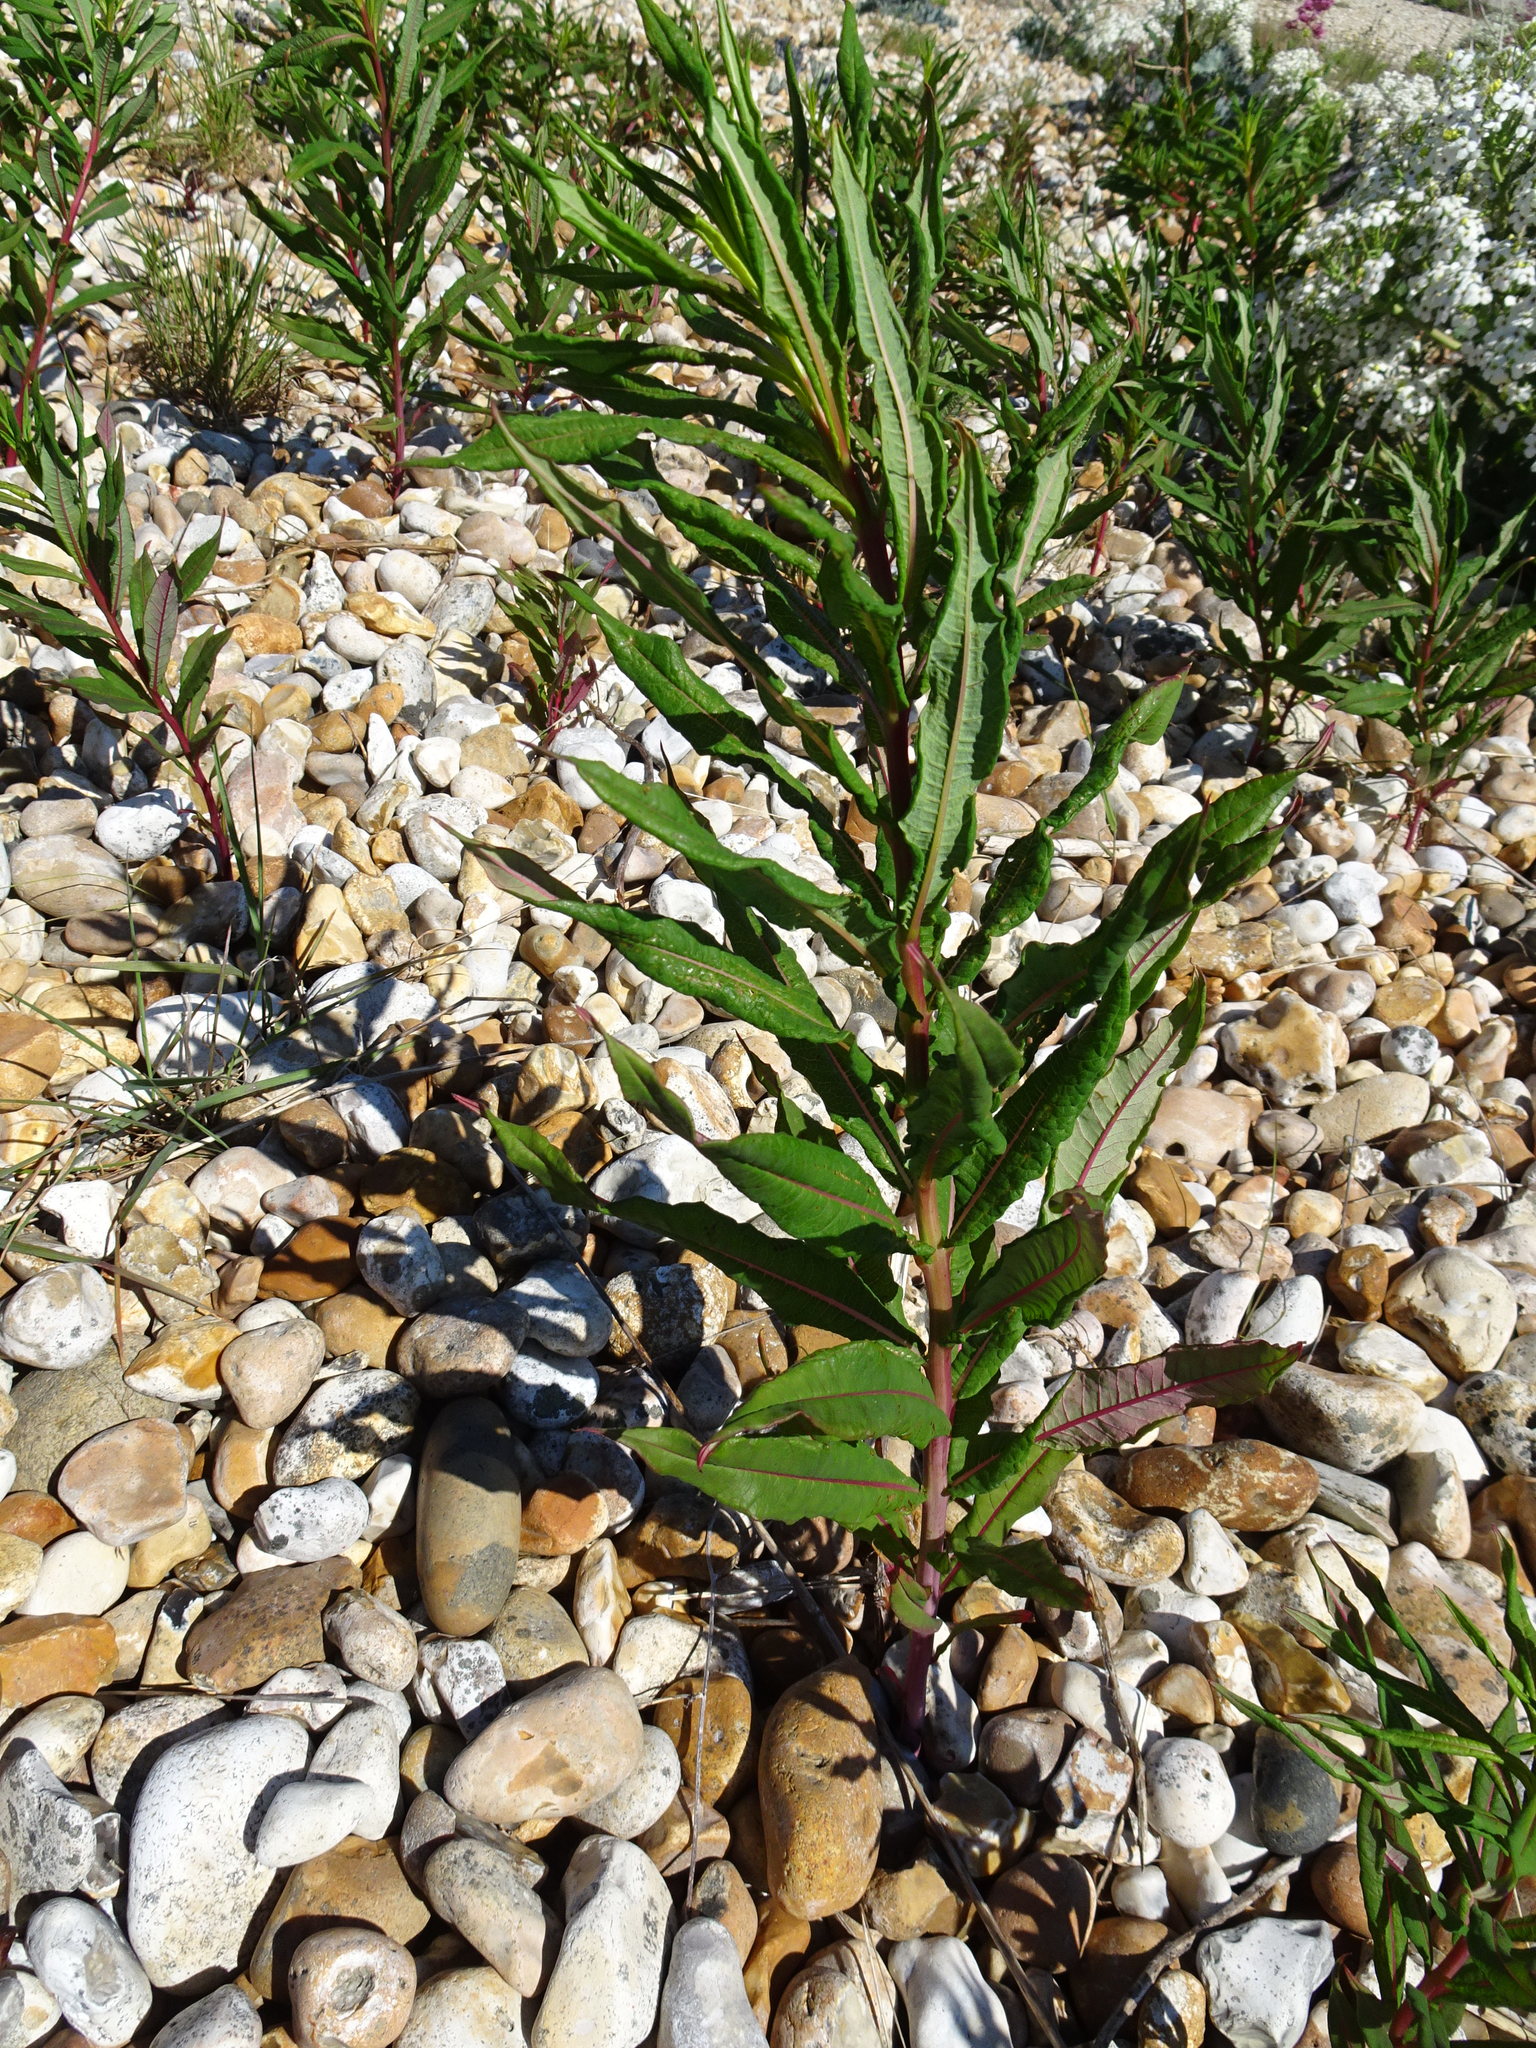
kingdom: Plantae
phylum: Tracheophyta
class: Magnoliopsida
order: Myrtales
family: Onagraceae
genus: Chamaenerion
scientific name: Chamaenerion angustifolium
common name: Fireweed
